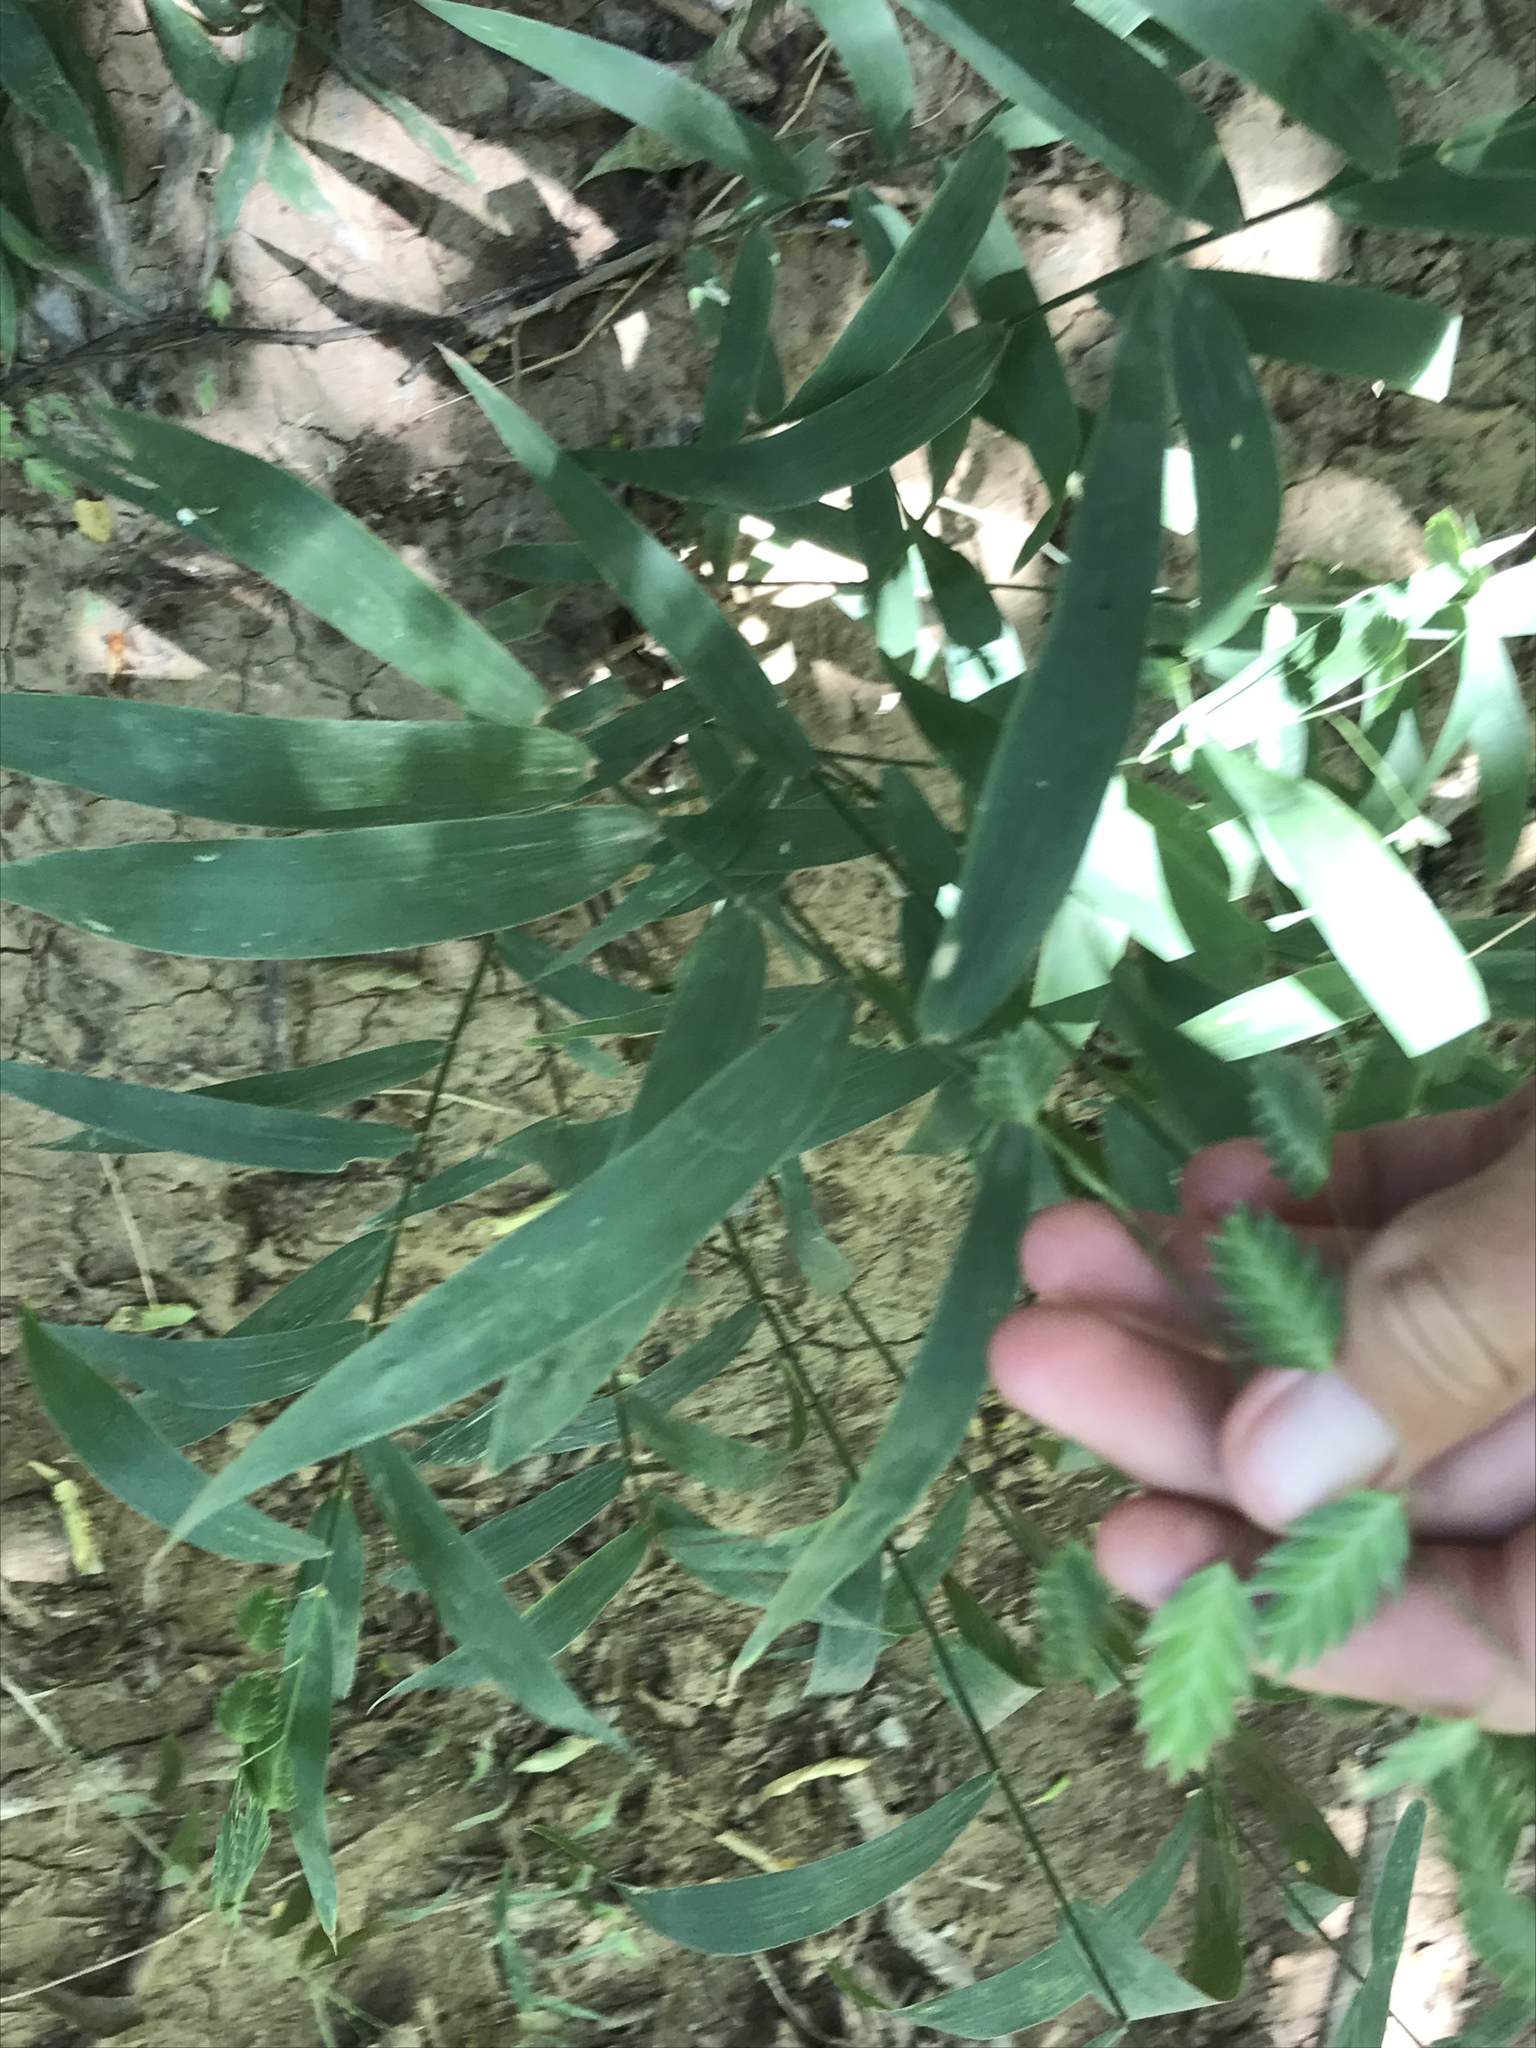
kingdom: Plantae
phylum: Tracheophyta
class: Liliopsida
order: Poales
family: Poaceae
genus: Chasmanthium
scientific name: Chasmanthium latifolium
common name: Broad-leaved chasmanthium
